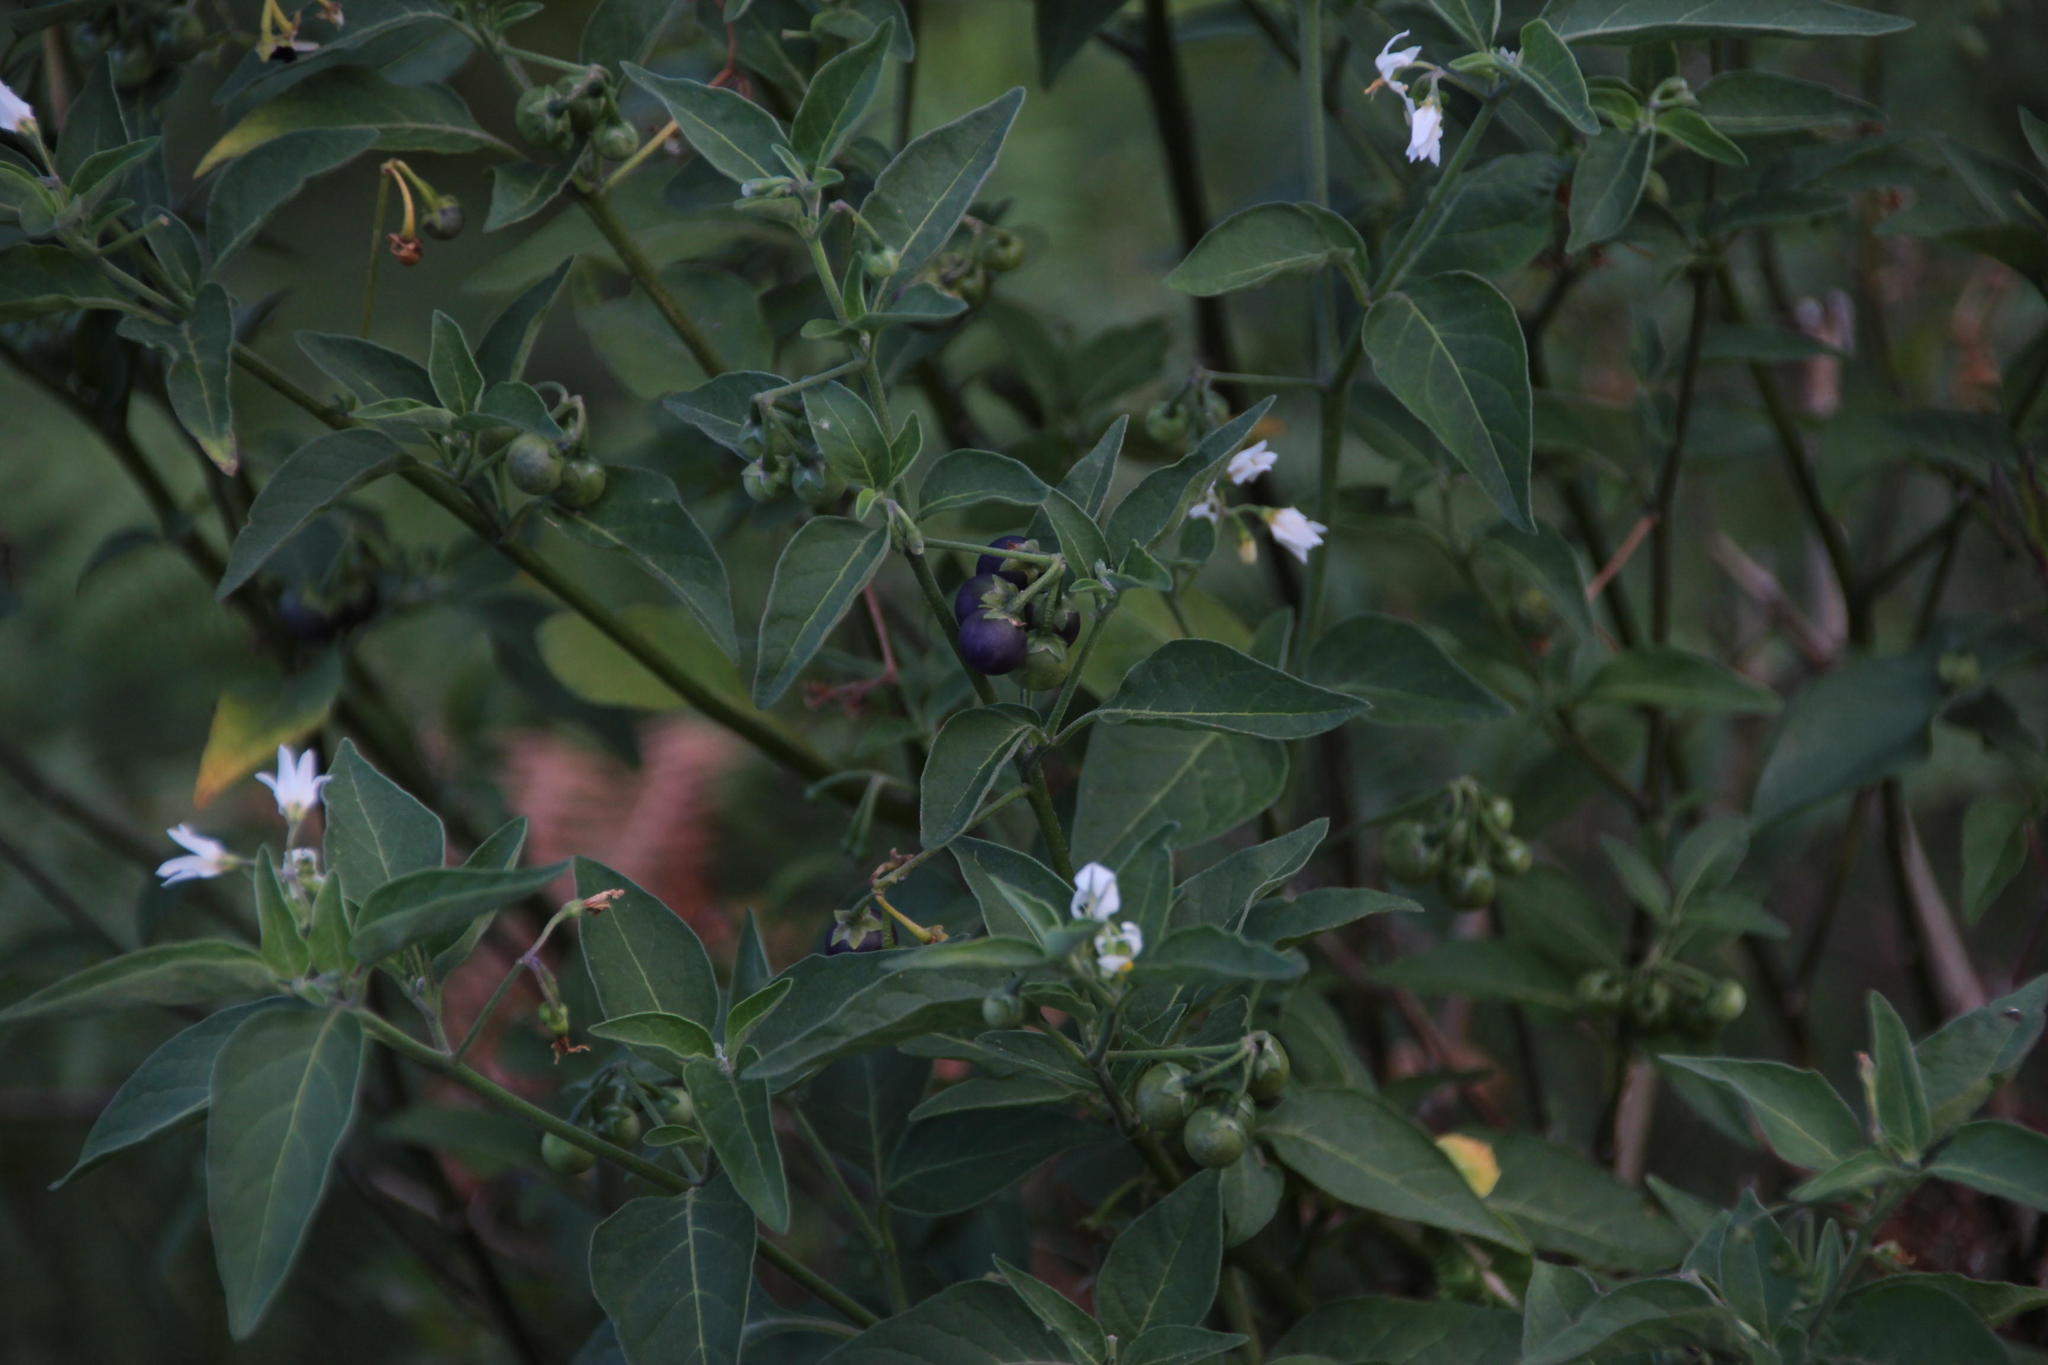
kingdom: Plantae
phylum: Tracheophyta
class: Magnoliopsida
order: Solanales
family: Solanaceae
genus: Solanum
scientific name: Solanum chenopodioides
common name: Tall nightshade
